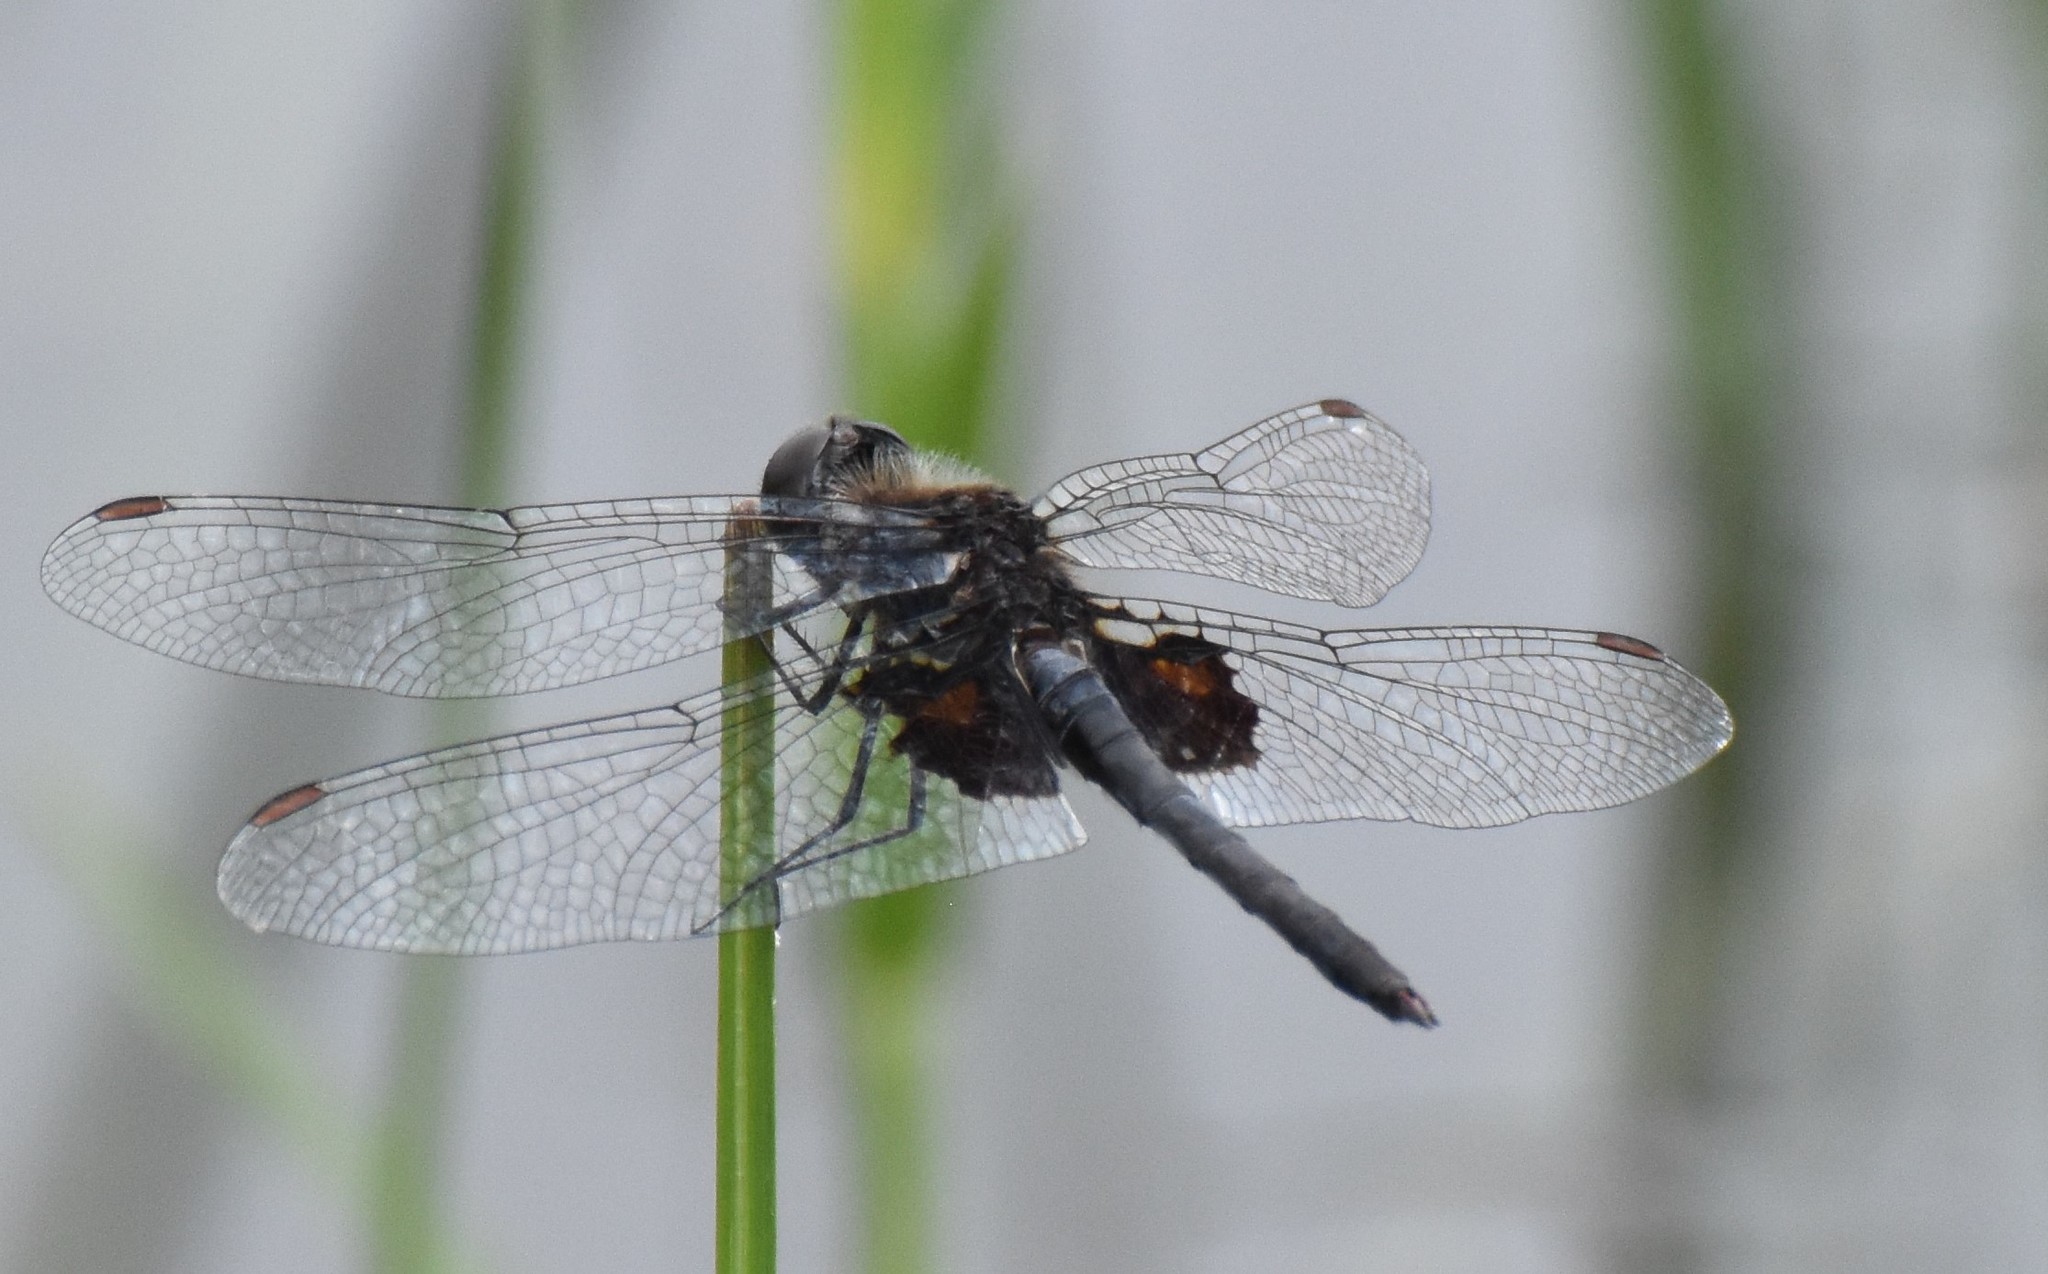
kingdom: Animalia
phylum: Arthropoda
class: Insecta
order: Odonata
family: Libellulidae
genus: Celithemis
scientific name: Celithemis martha
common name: Martha's pennant
